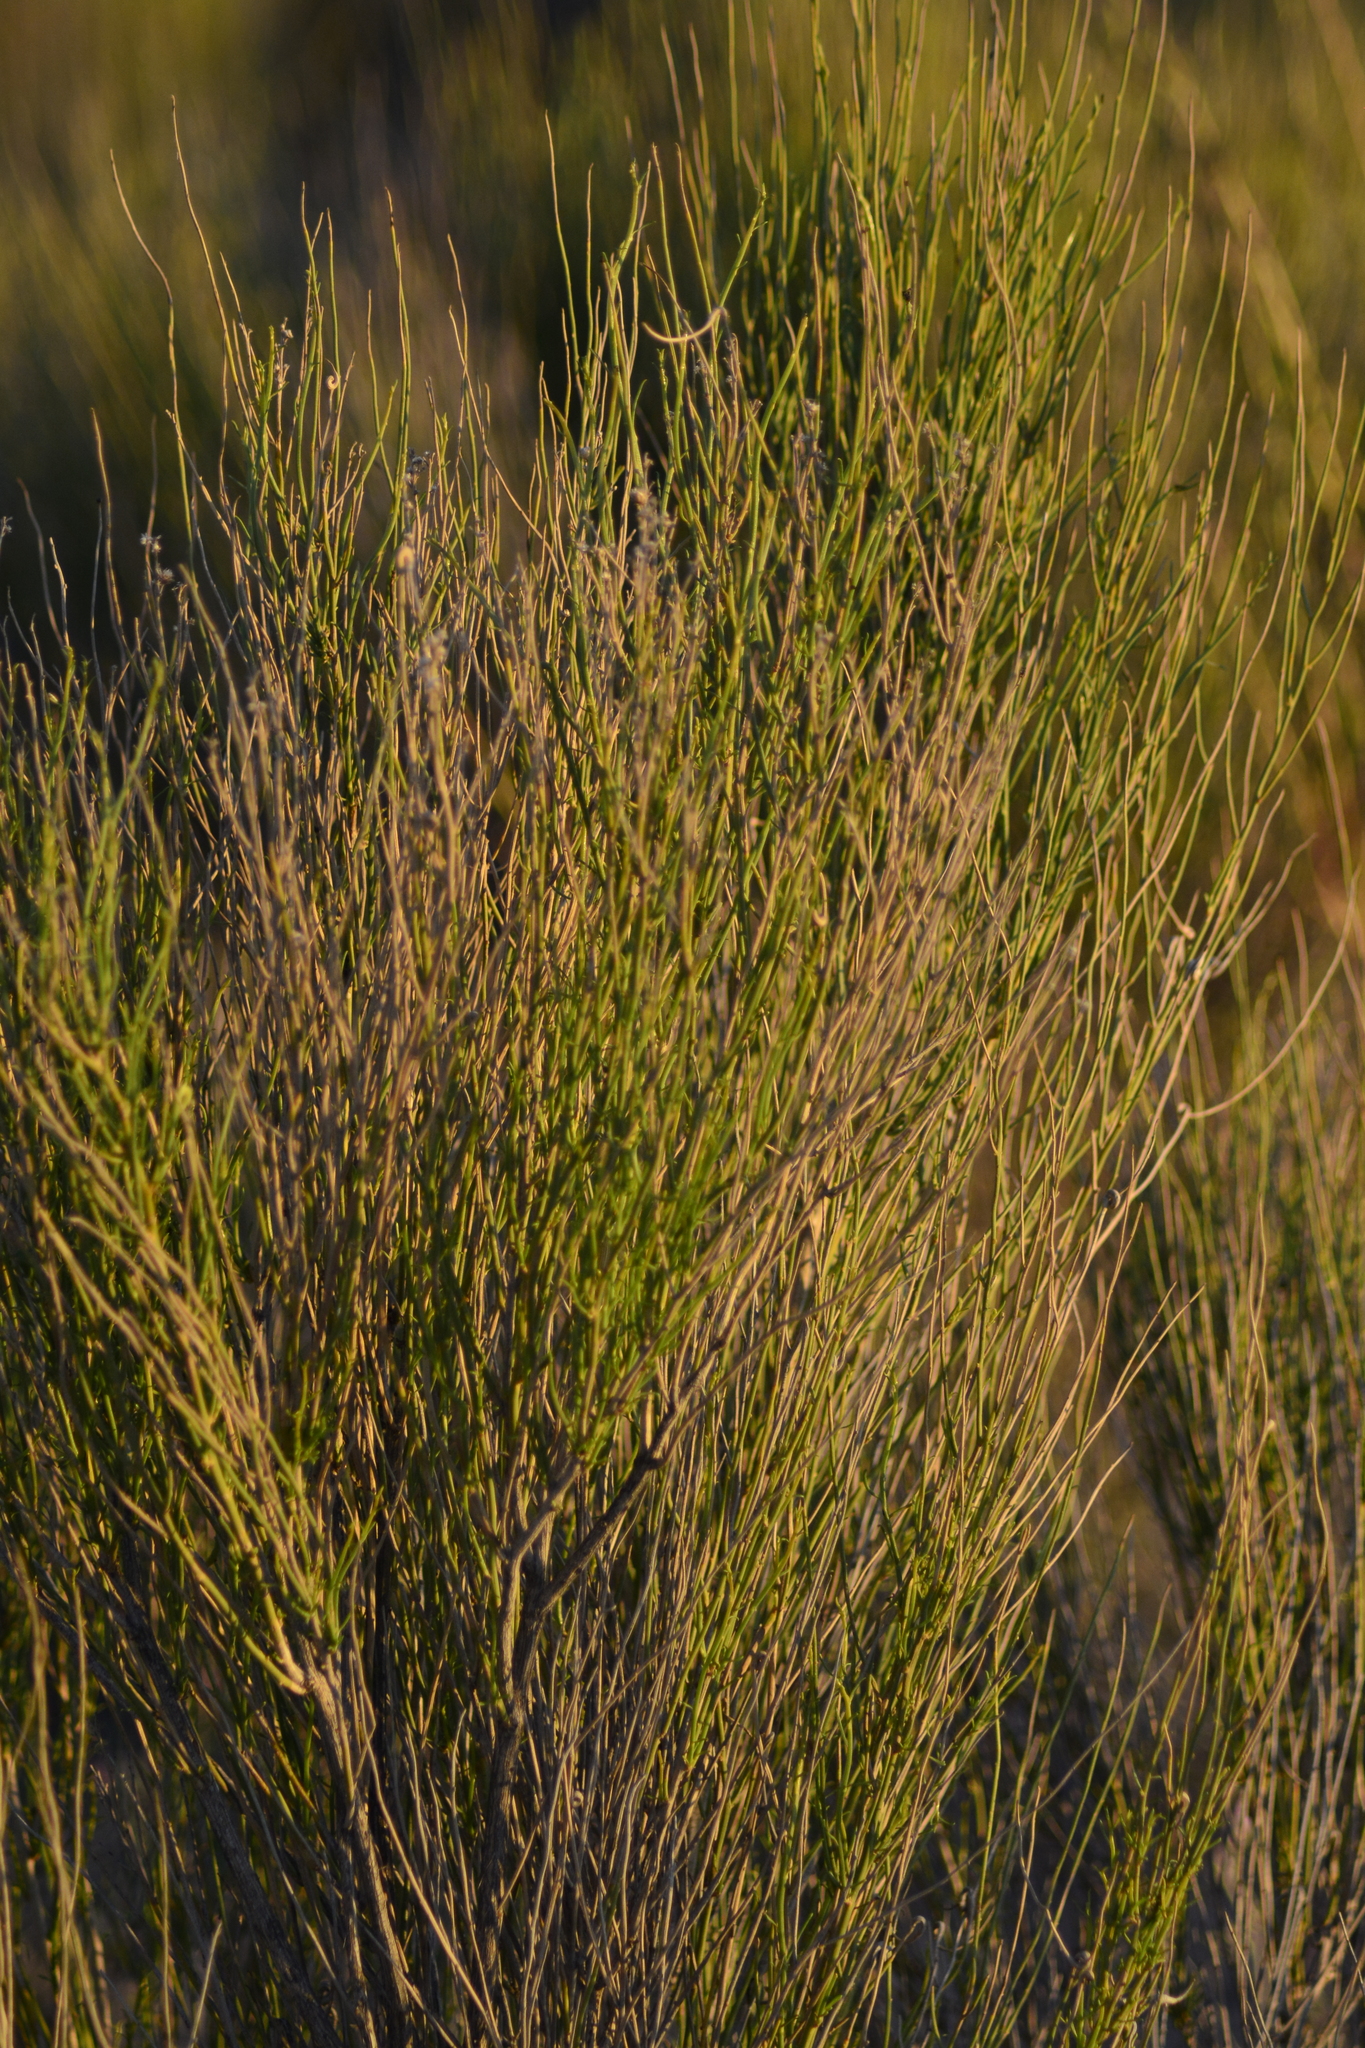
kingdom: Plantae
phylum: Tracheophyta
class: Magnoliopsida
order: Asterales
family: Asteraceae
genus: Pseudobaccharis
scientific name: Pseudobaccharis spartioides
